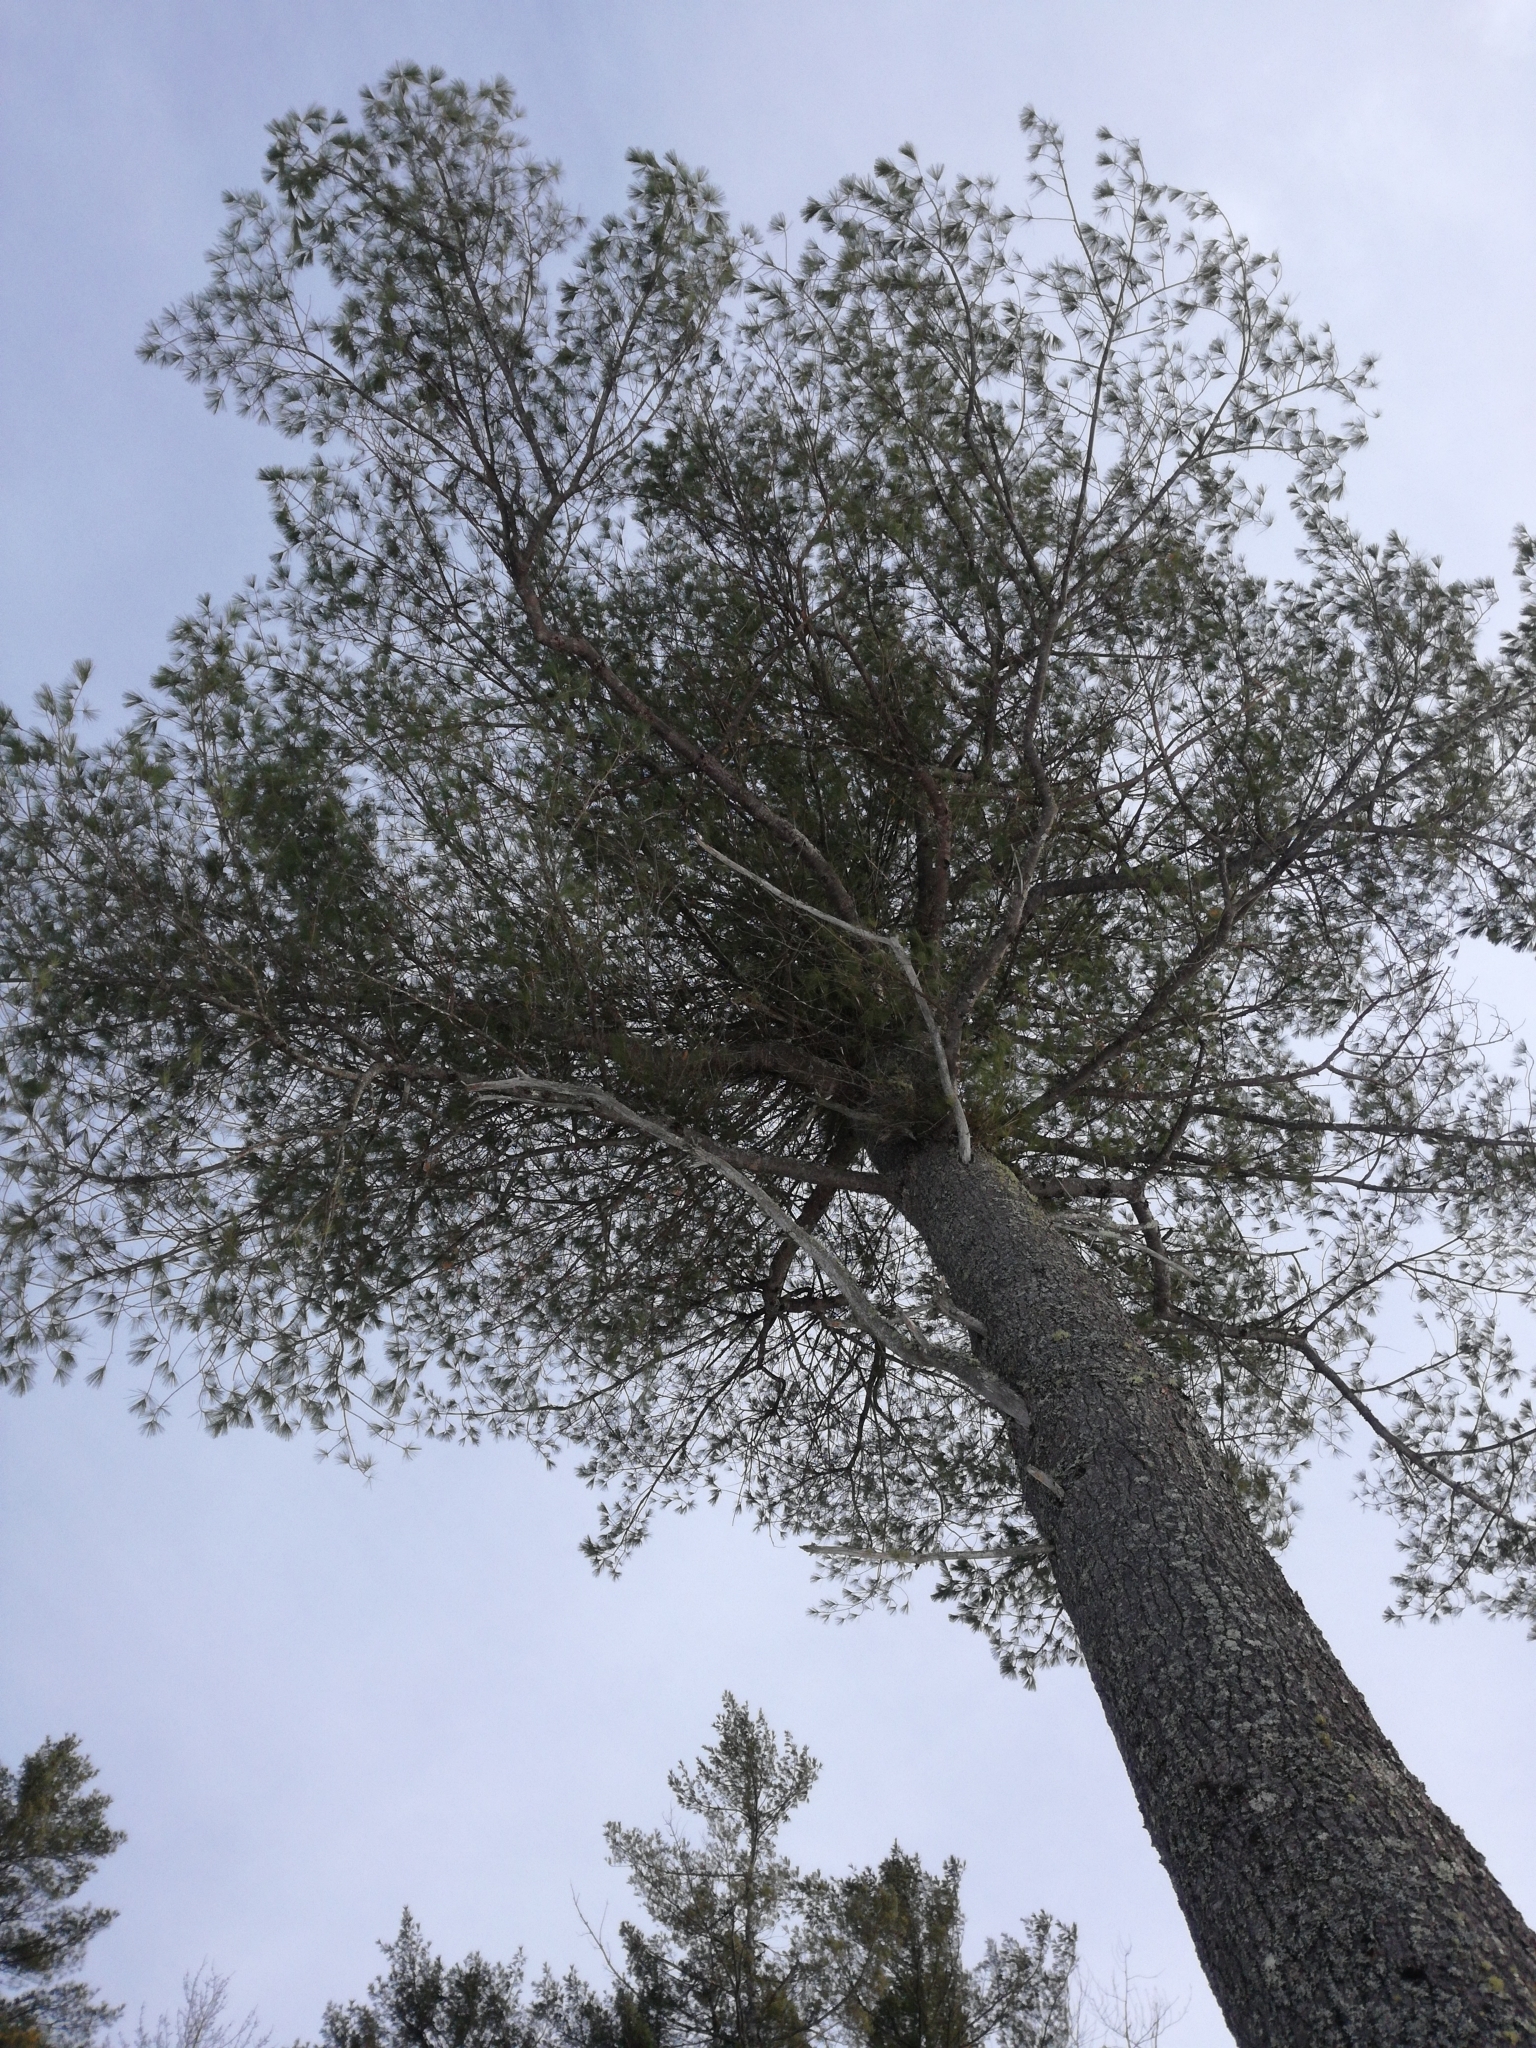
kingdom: Plantae
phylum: Tracheophyta
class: Pinopsida
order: Pinales
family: Pinaceae
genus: Pinus
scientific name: Pinus strobus
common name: Weymouth pine
